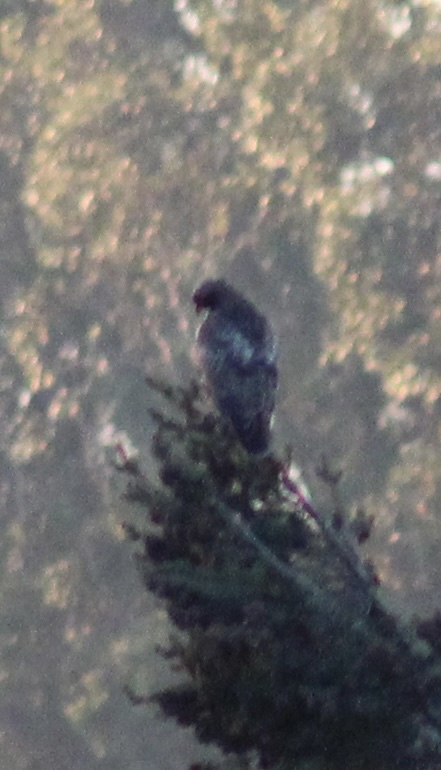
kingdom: Animalia
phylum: Chordata
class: Aves
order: Accipitriformes
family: Accipitridae
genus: Buteo
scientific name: Buteo jamaicensis
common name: Red-tailed hawk
